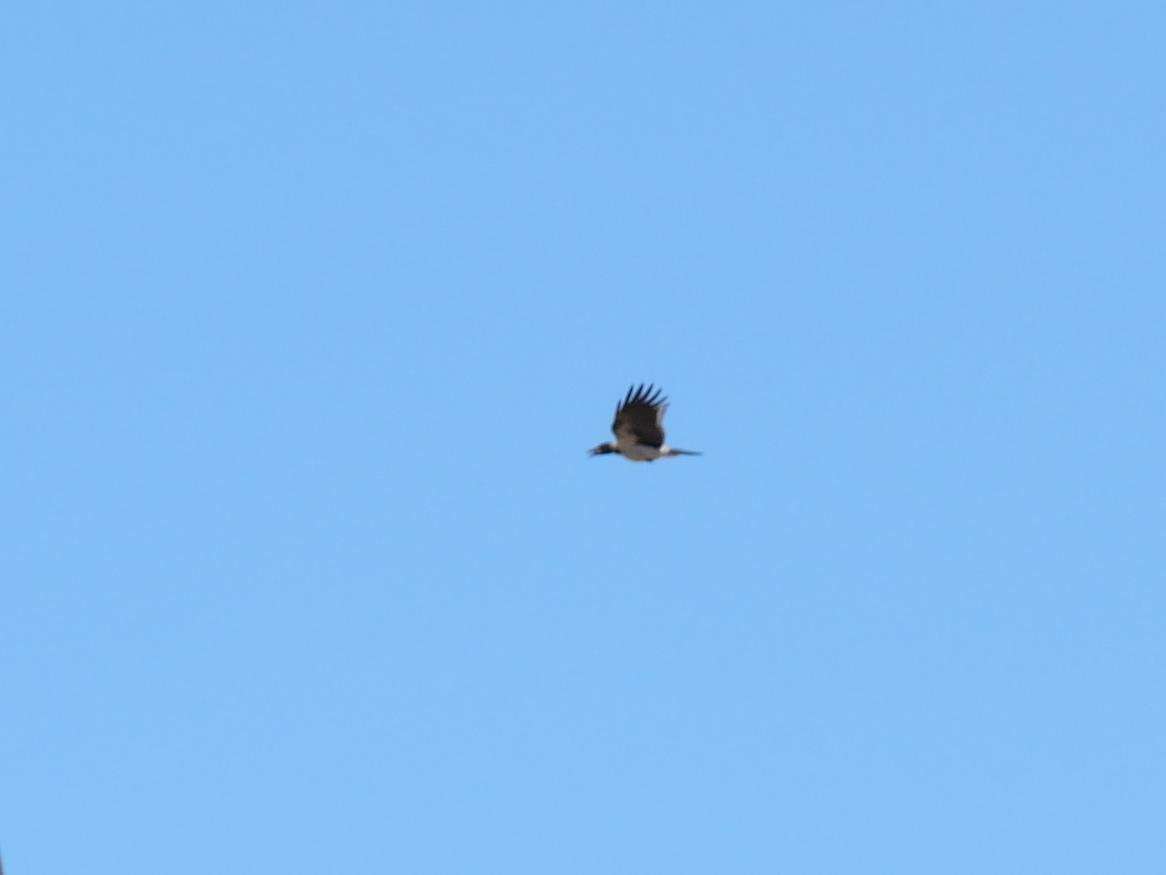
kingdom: Animalia
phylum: Chordata
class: Aves
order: Passeriformes
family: Corvidae
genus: Corvus
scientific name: Corvus cornix
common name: Hooded crow
